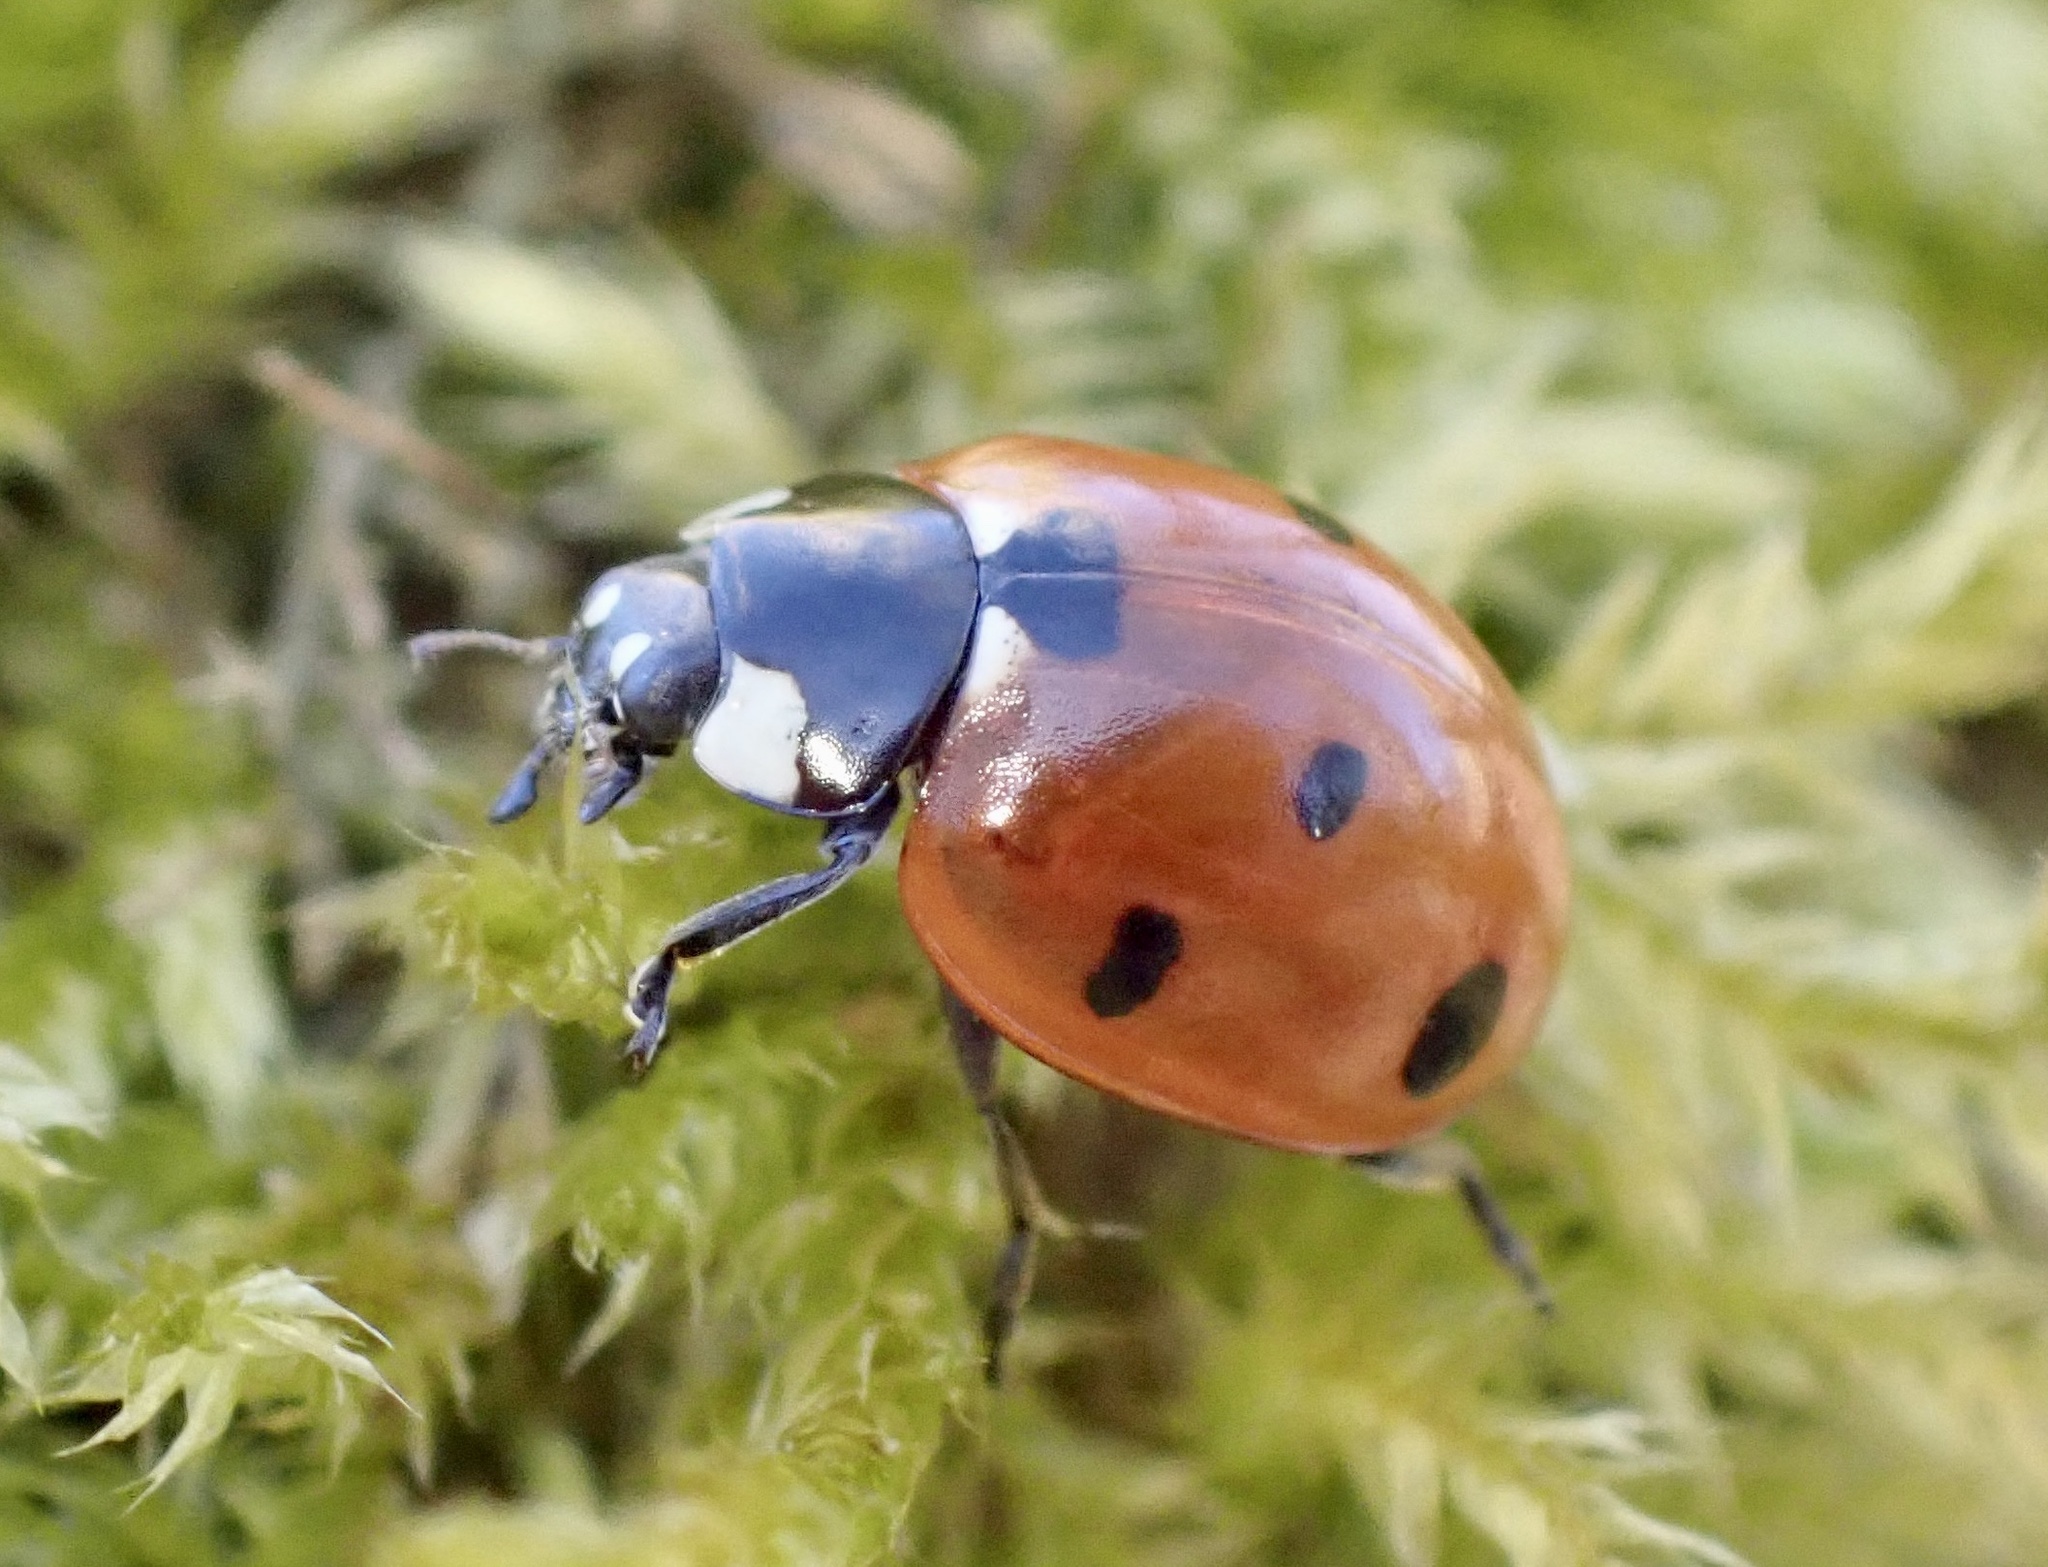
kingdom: Animalia
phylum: Arthropoda
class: Insecta
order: Coleoptera
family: Coccinellidae
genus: Coccinella
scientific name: Coccinella septempunctata
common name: Sevenspotted lady beetle
